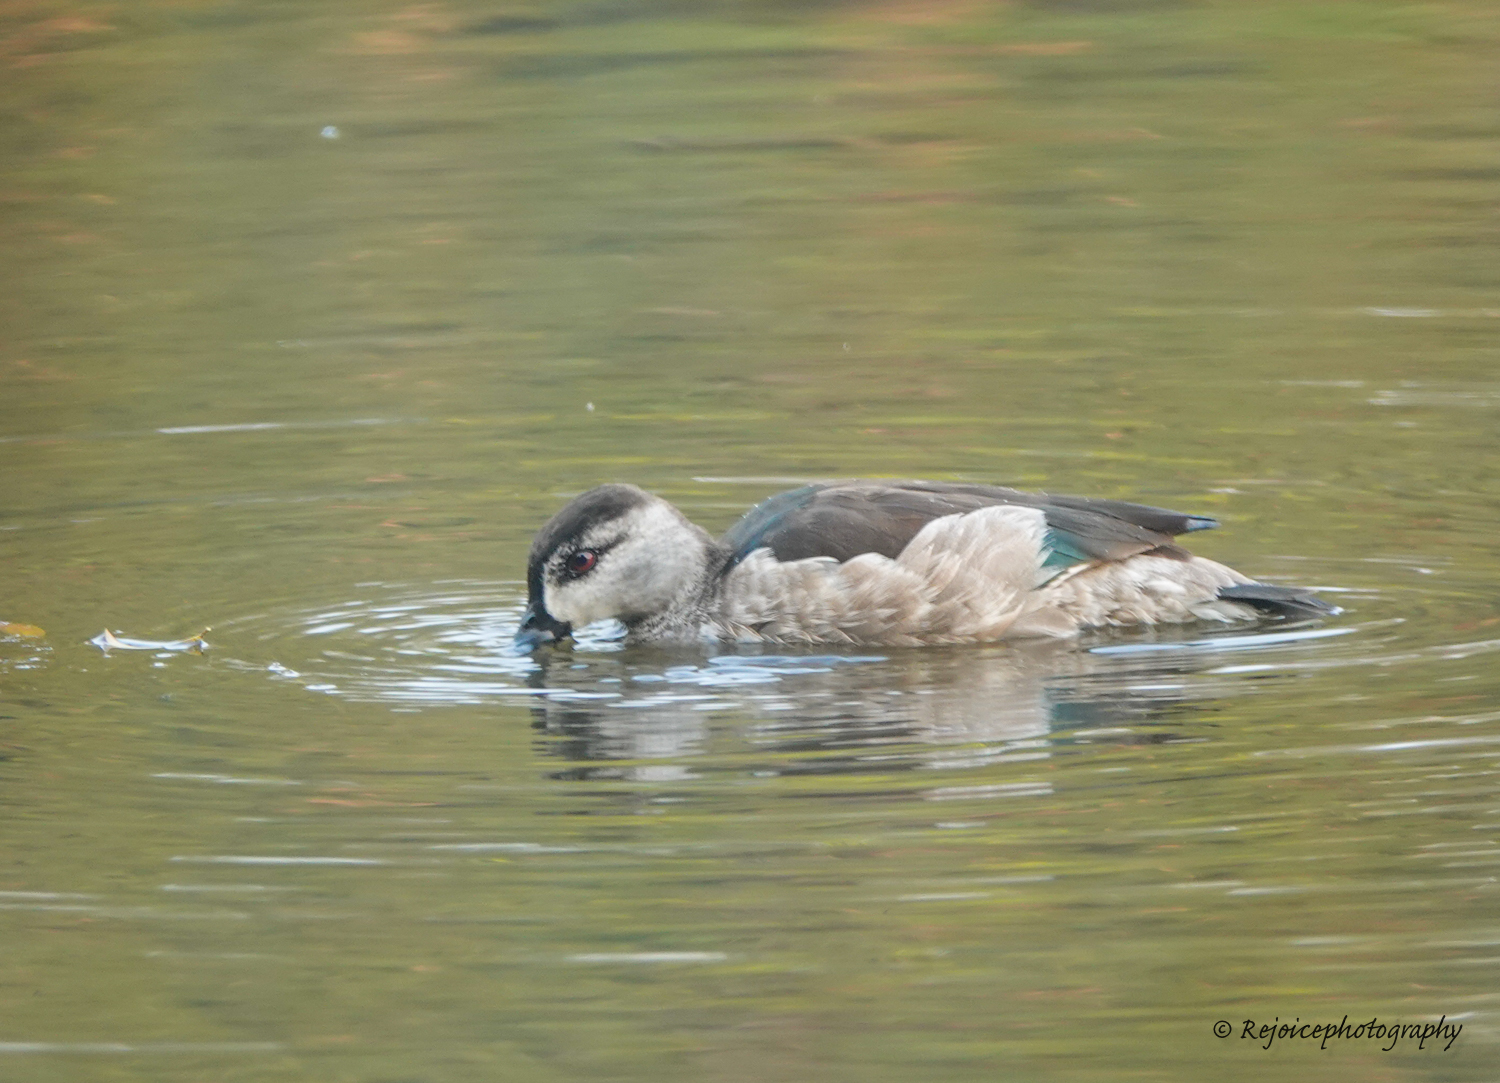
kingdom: Animalia
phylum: Chordata
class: Aves
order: Anseriformes
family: Anatidae
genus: Nettapus
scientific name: Nettapus coromandelianus
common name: Cotton pygmy-goose
